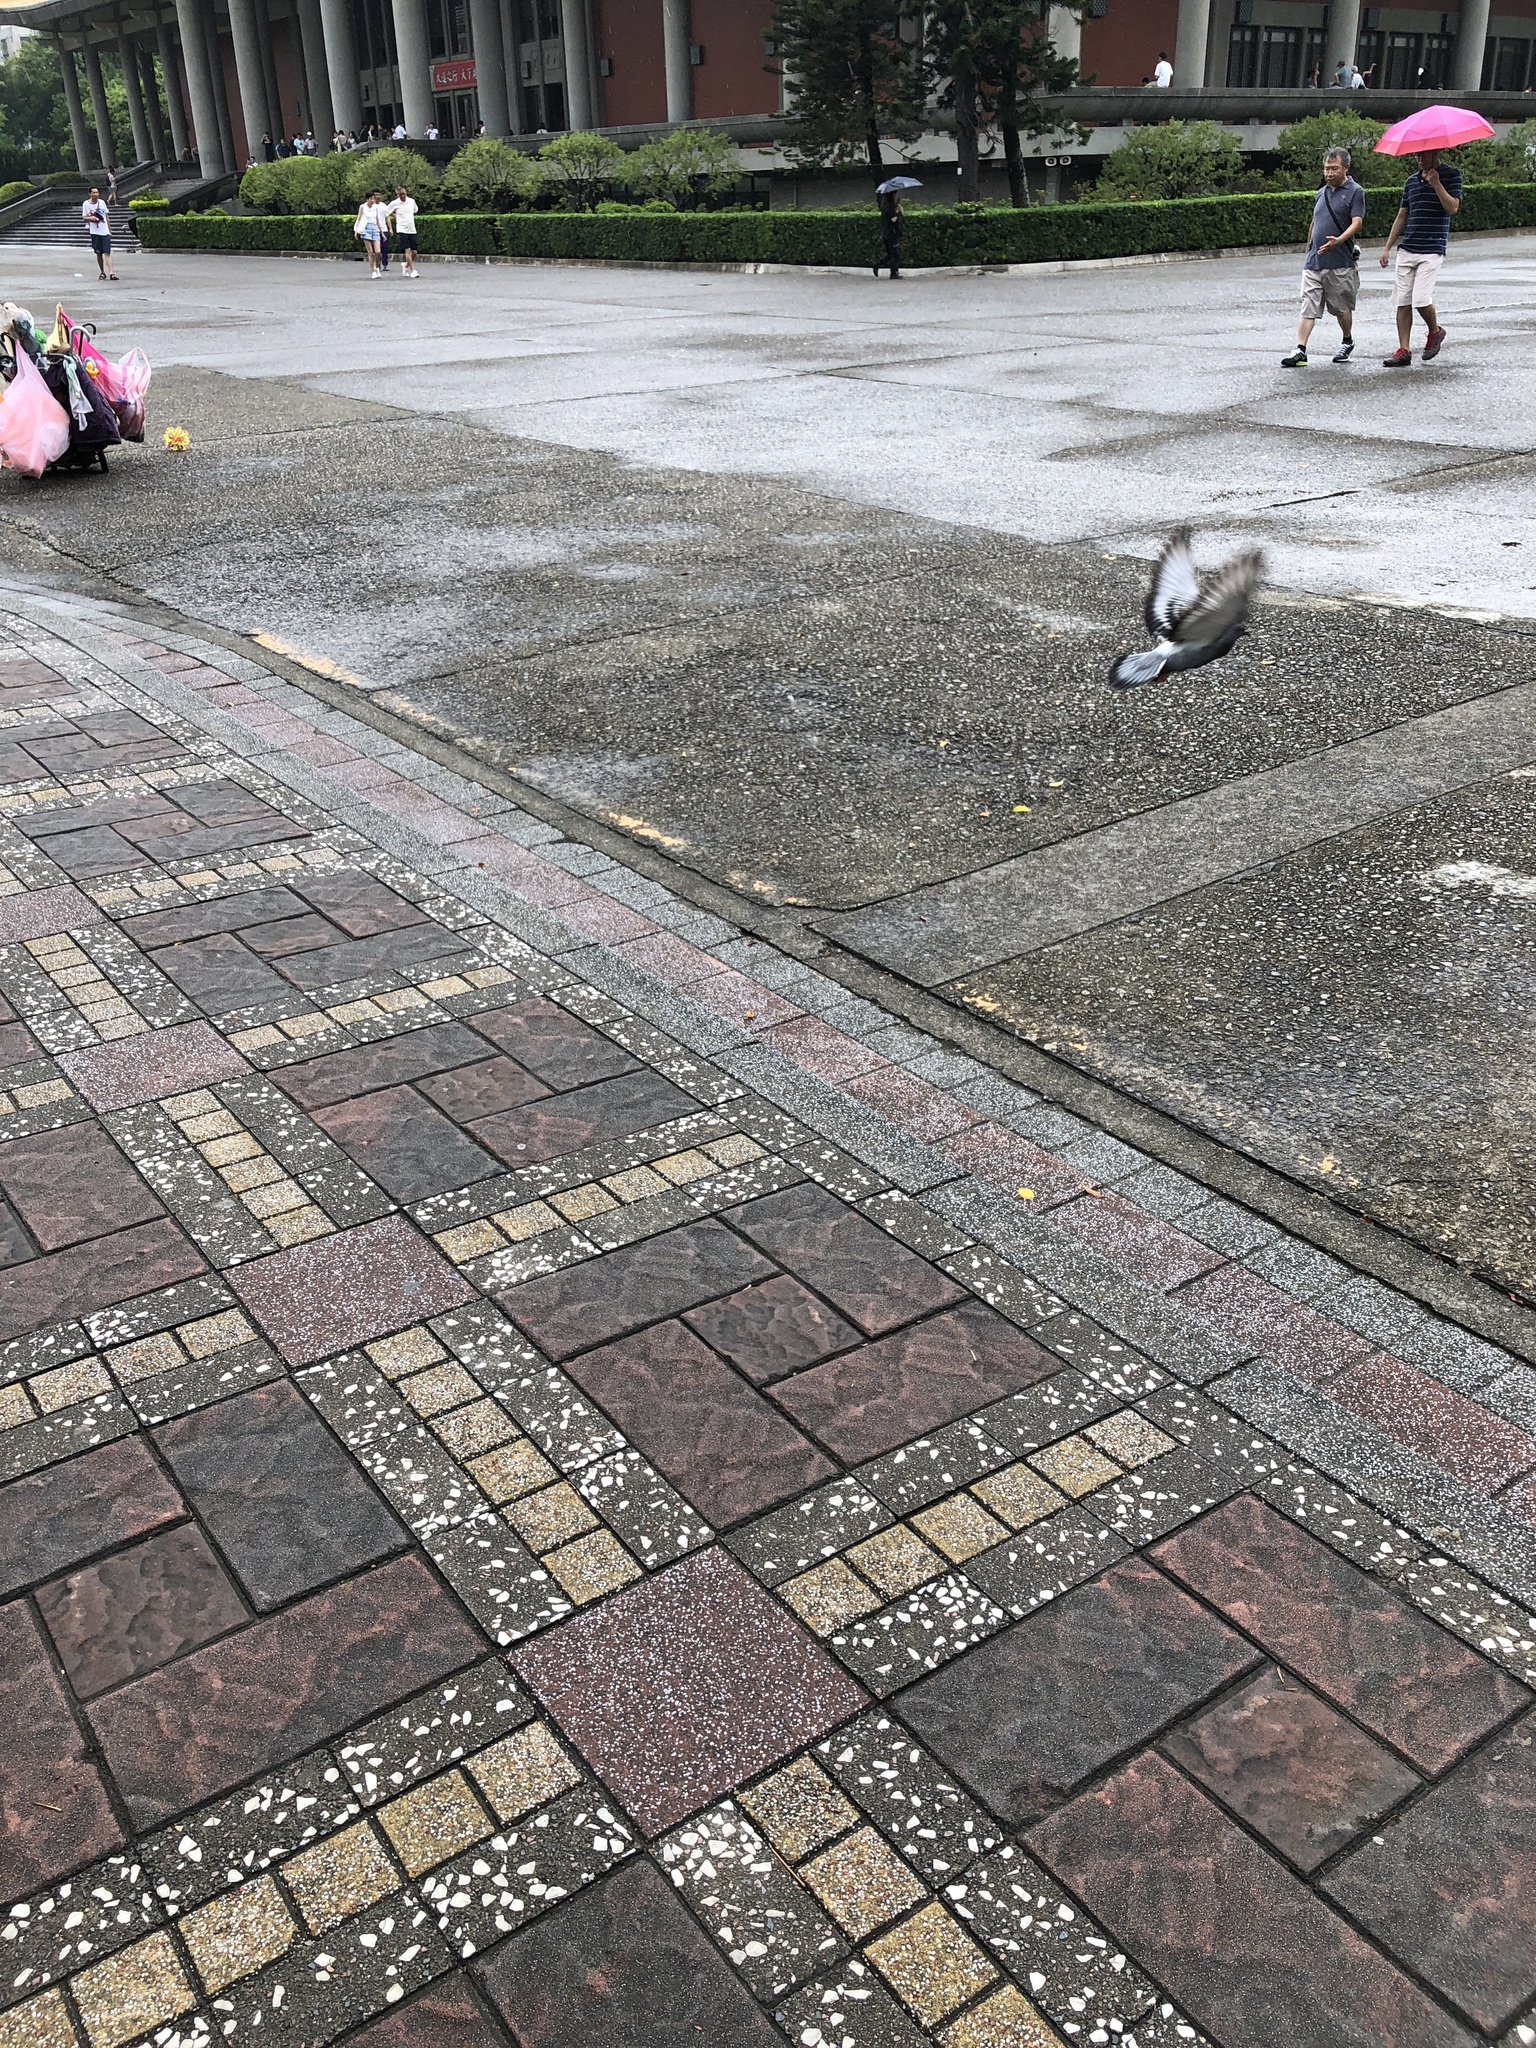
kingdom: Animalia
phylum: Chordata
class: Aves
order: Columbiformes
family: Columbidae
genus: Columba
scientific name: Columba livia
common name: Rock pigeon
